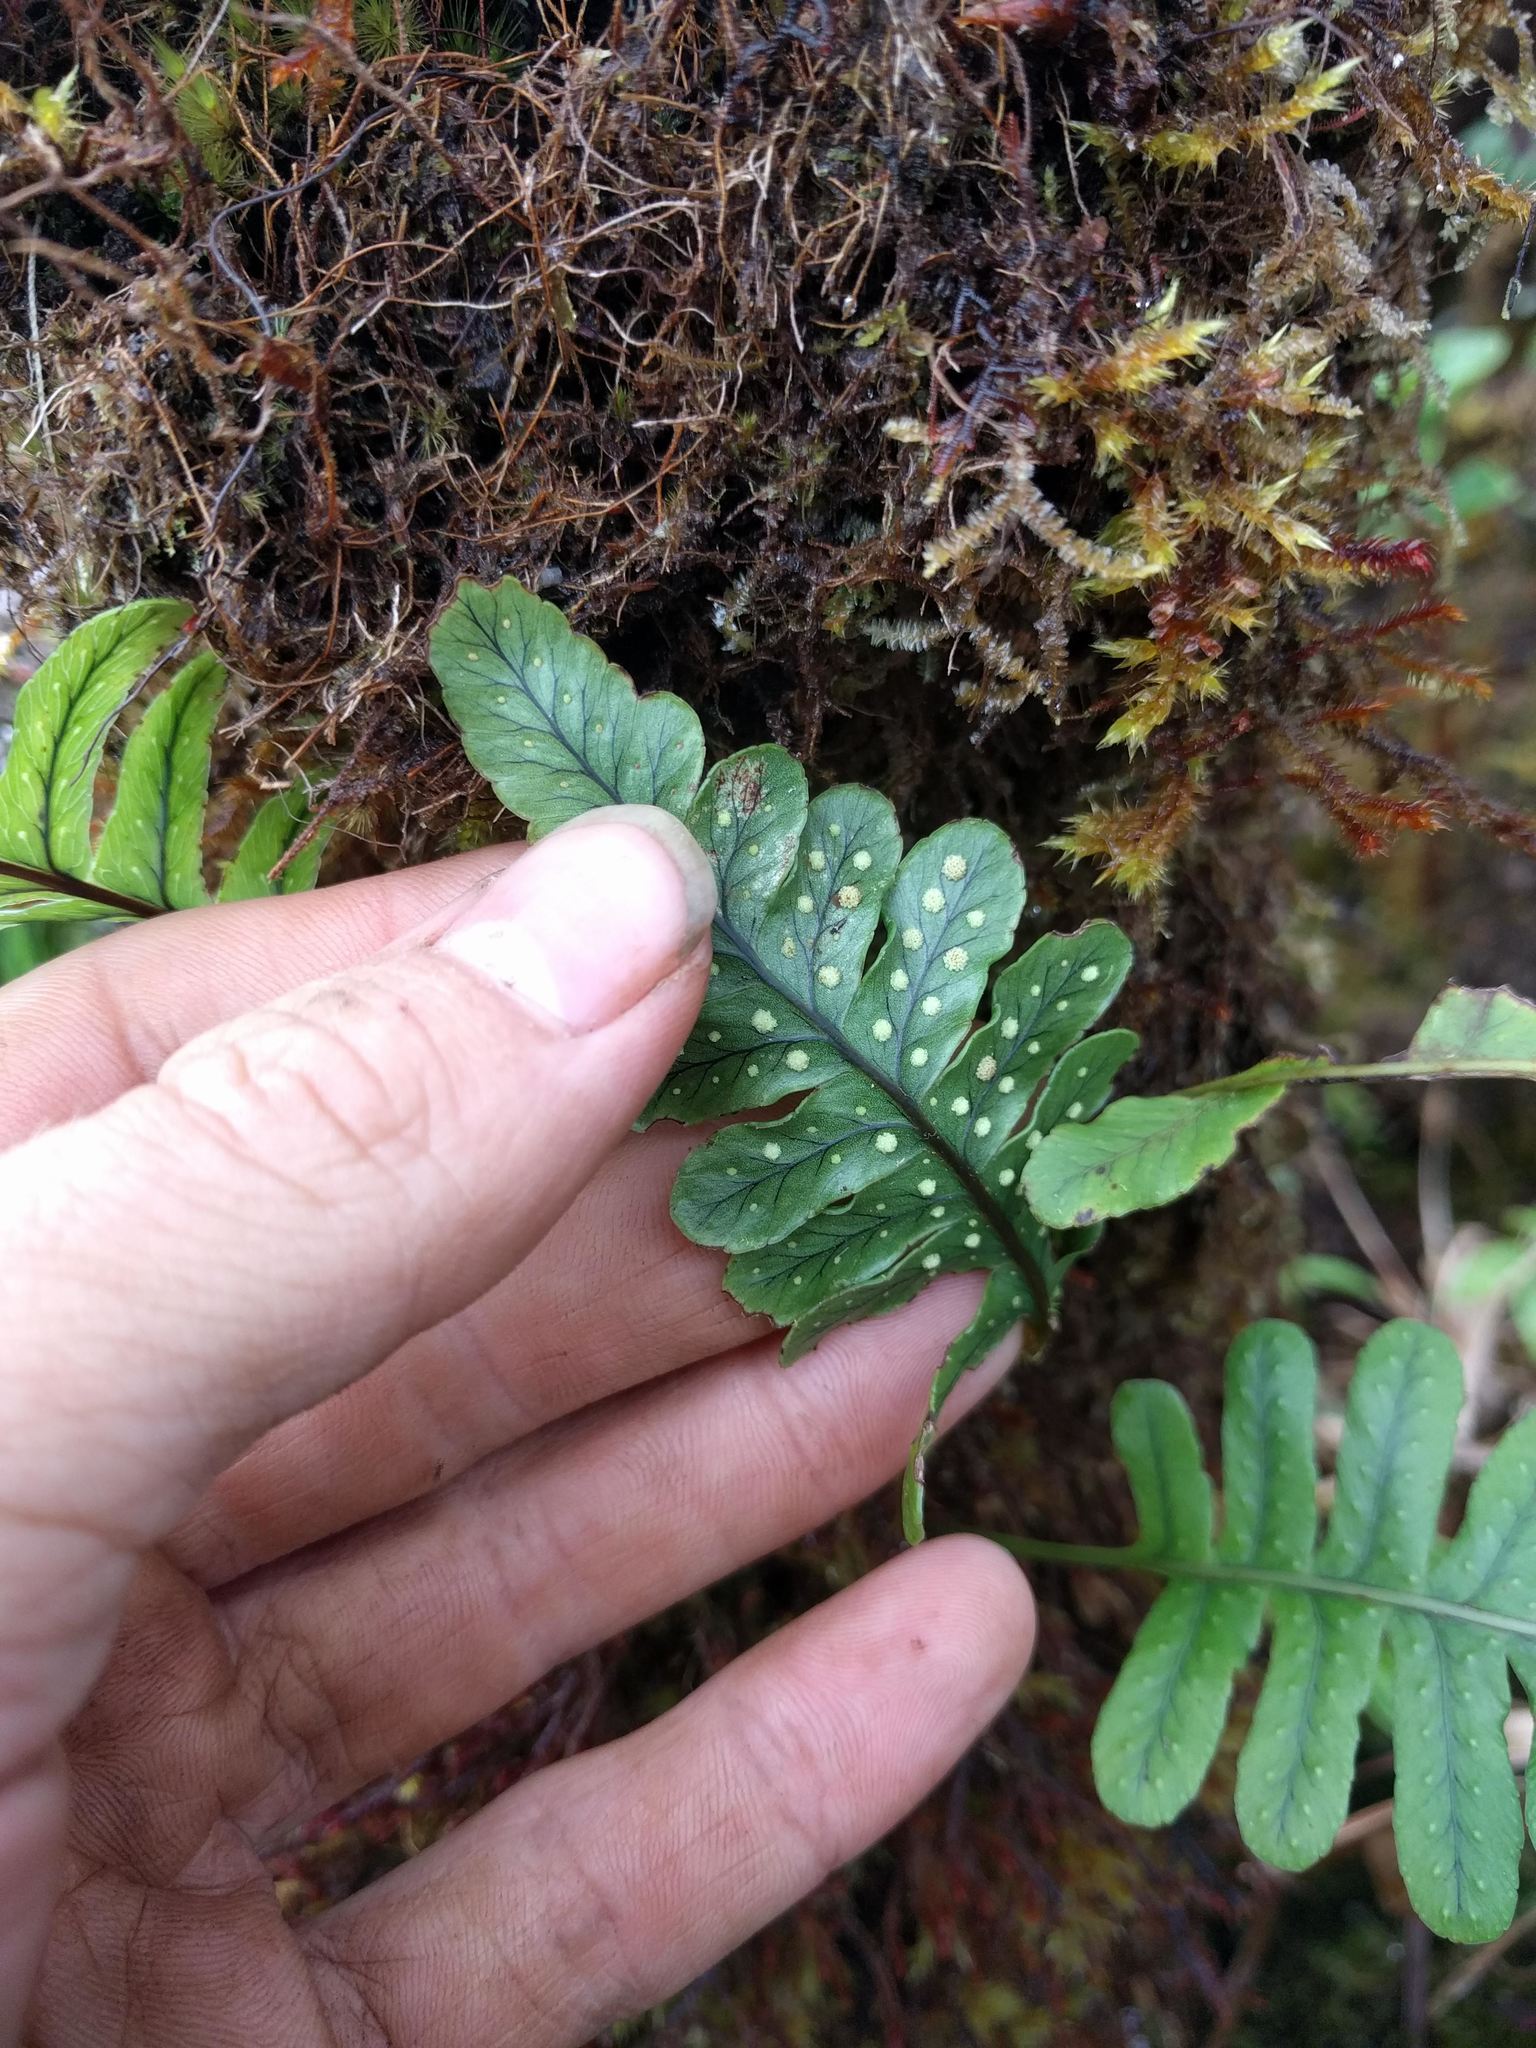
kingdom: Plantae
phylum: Tracheophyta
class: Polypodiopsida
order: Polypodiales
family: Polypodiaceae
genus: Polypodium
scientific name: Polypodium pellucidum
